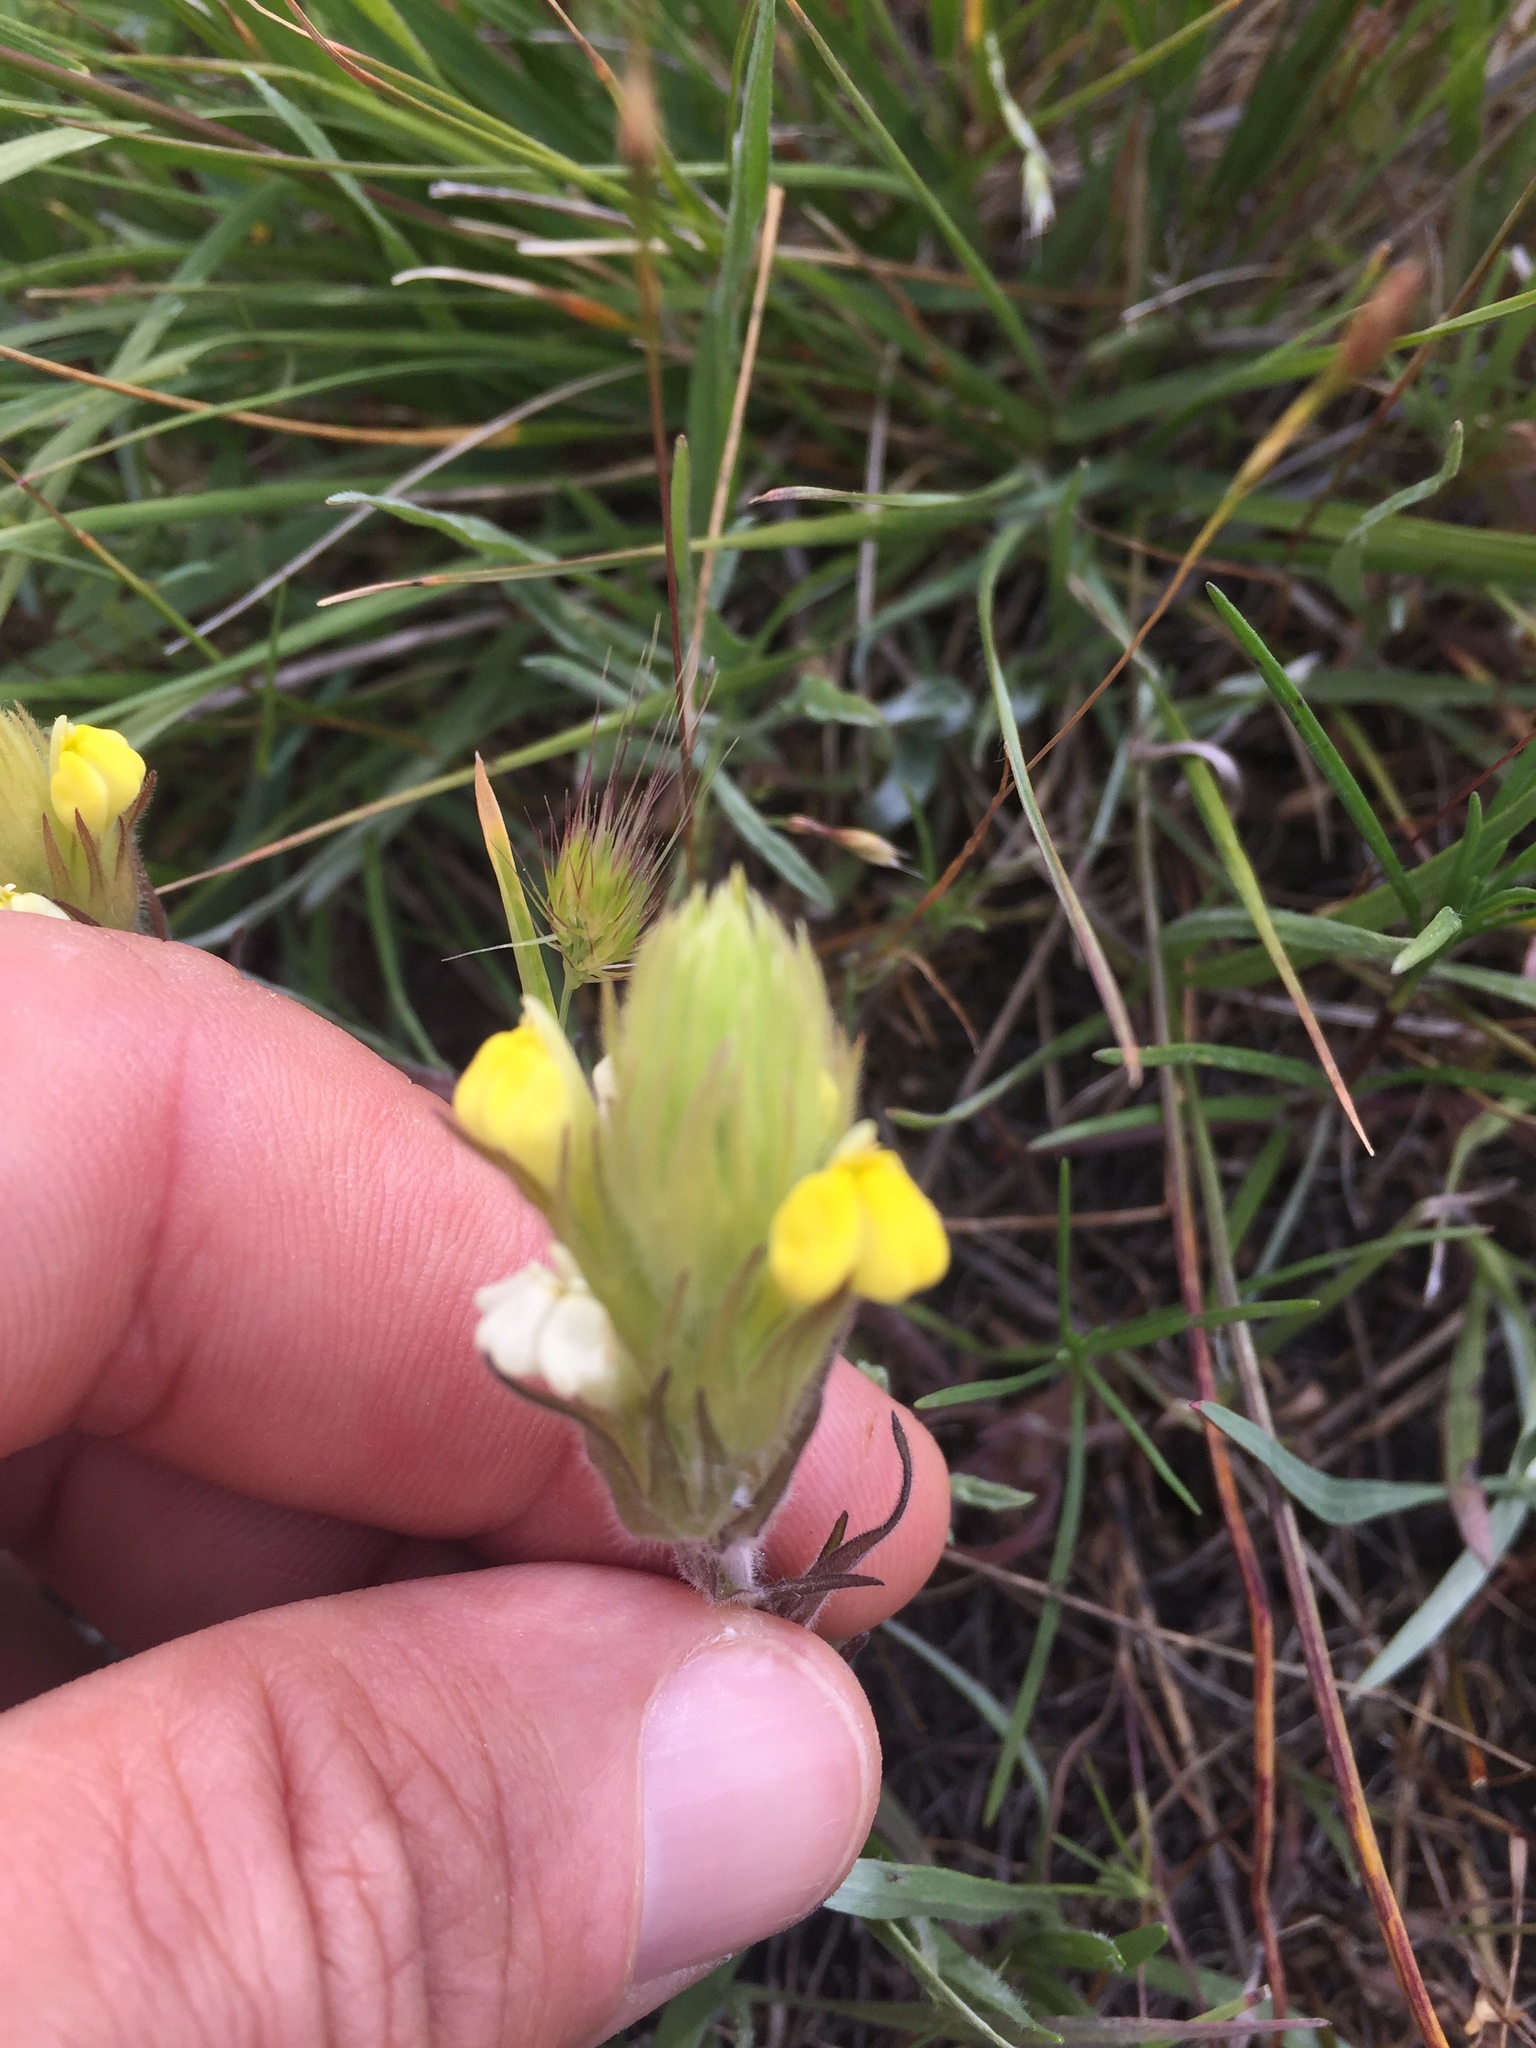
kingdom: Plantae
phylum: Tracheophyta
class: Magnoliopsida
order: Lamiales
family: Orobanchaceae
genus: Castilleja
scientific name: Castilleja rubicundula
